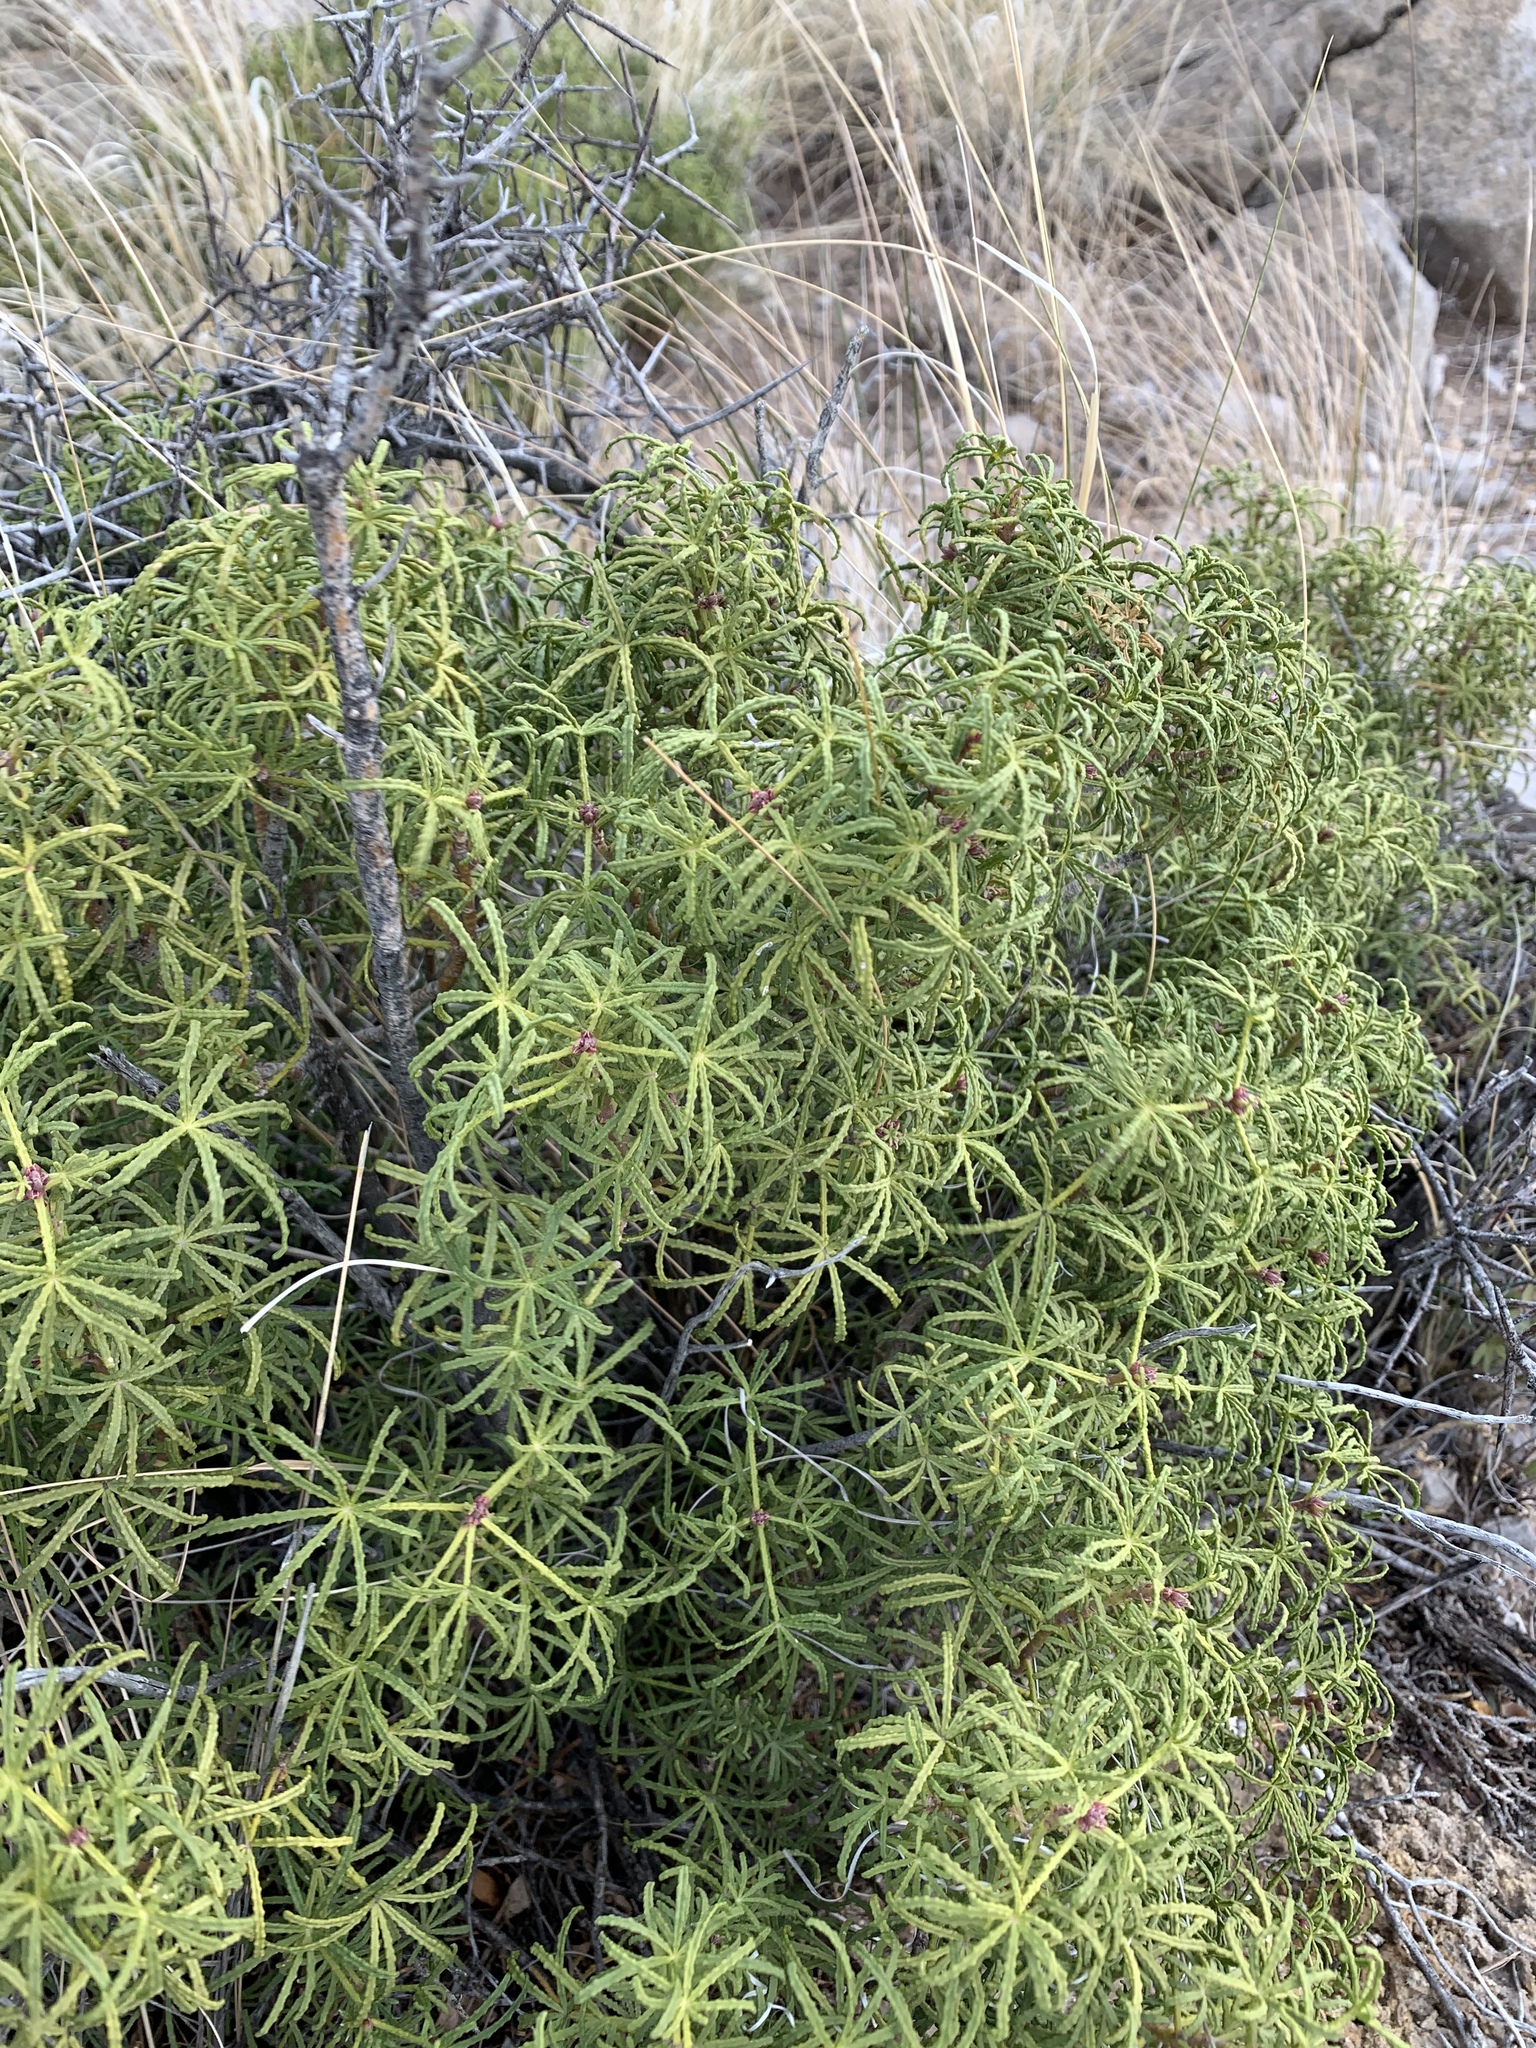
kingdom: Plantae
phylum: Tracheophyta
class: Magnoliopsida
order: Sapindales
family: Rutaceae
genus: Choisya
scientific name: Choisya dumosa
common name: Mexican-orange
